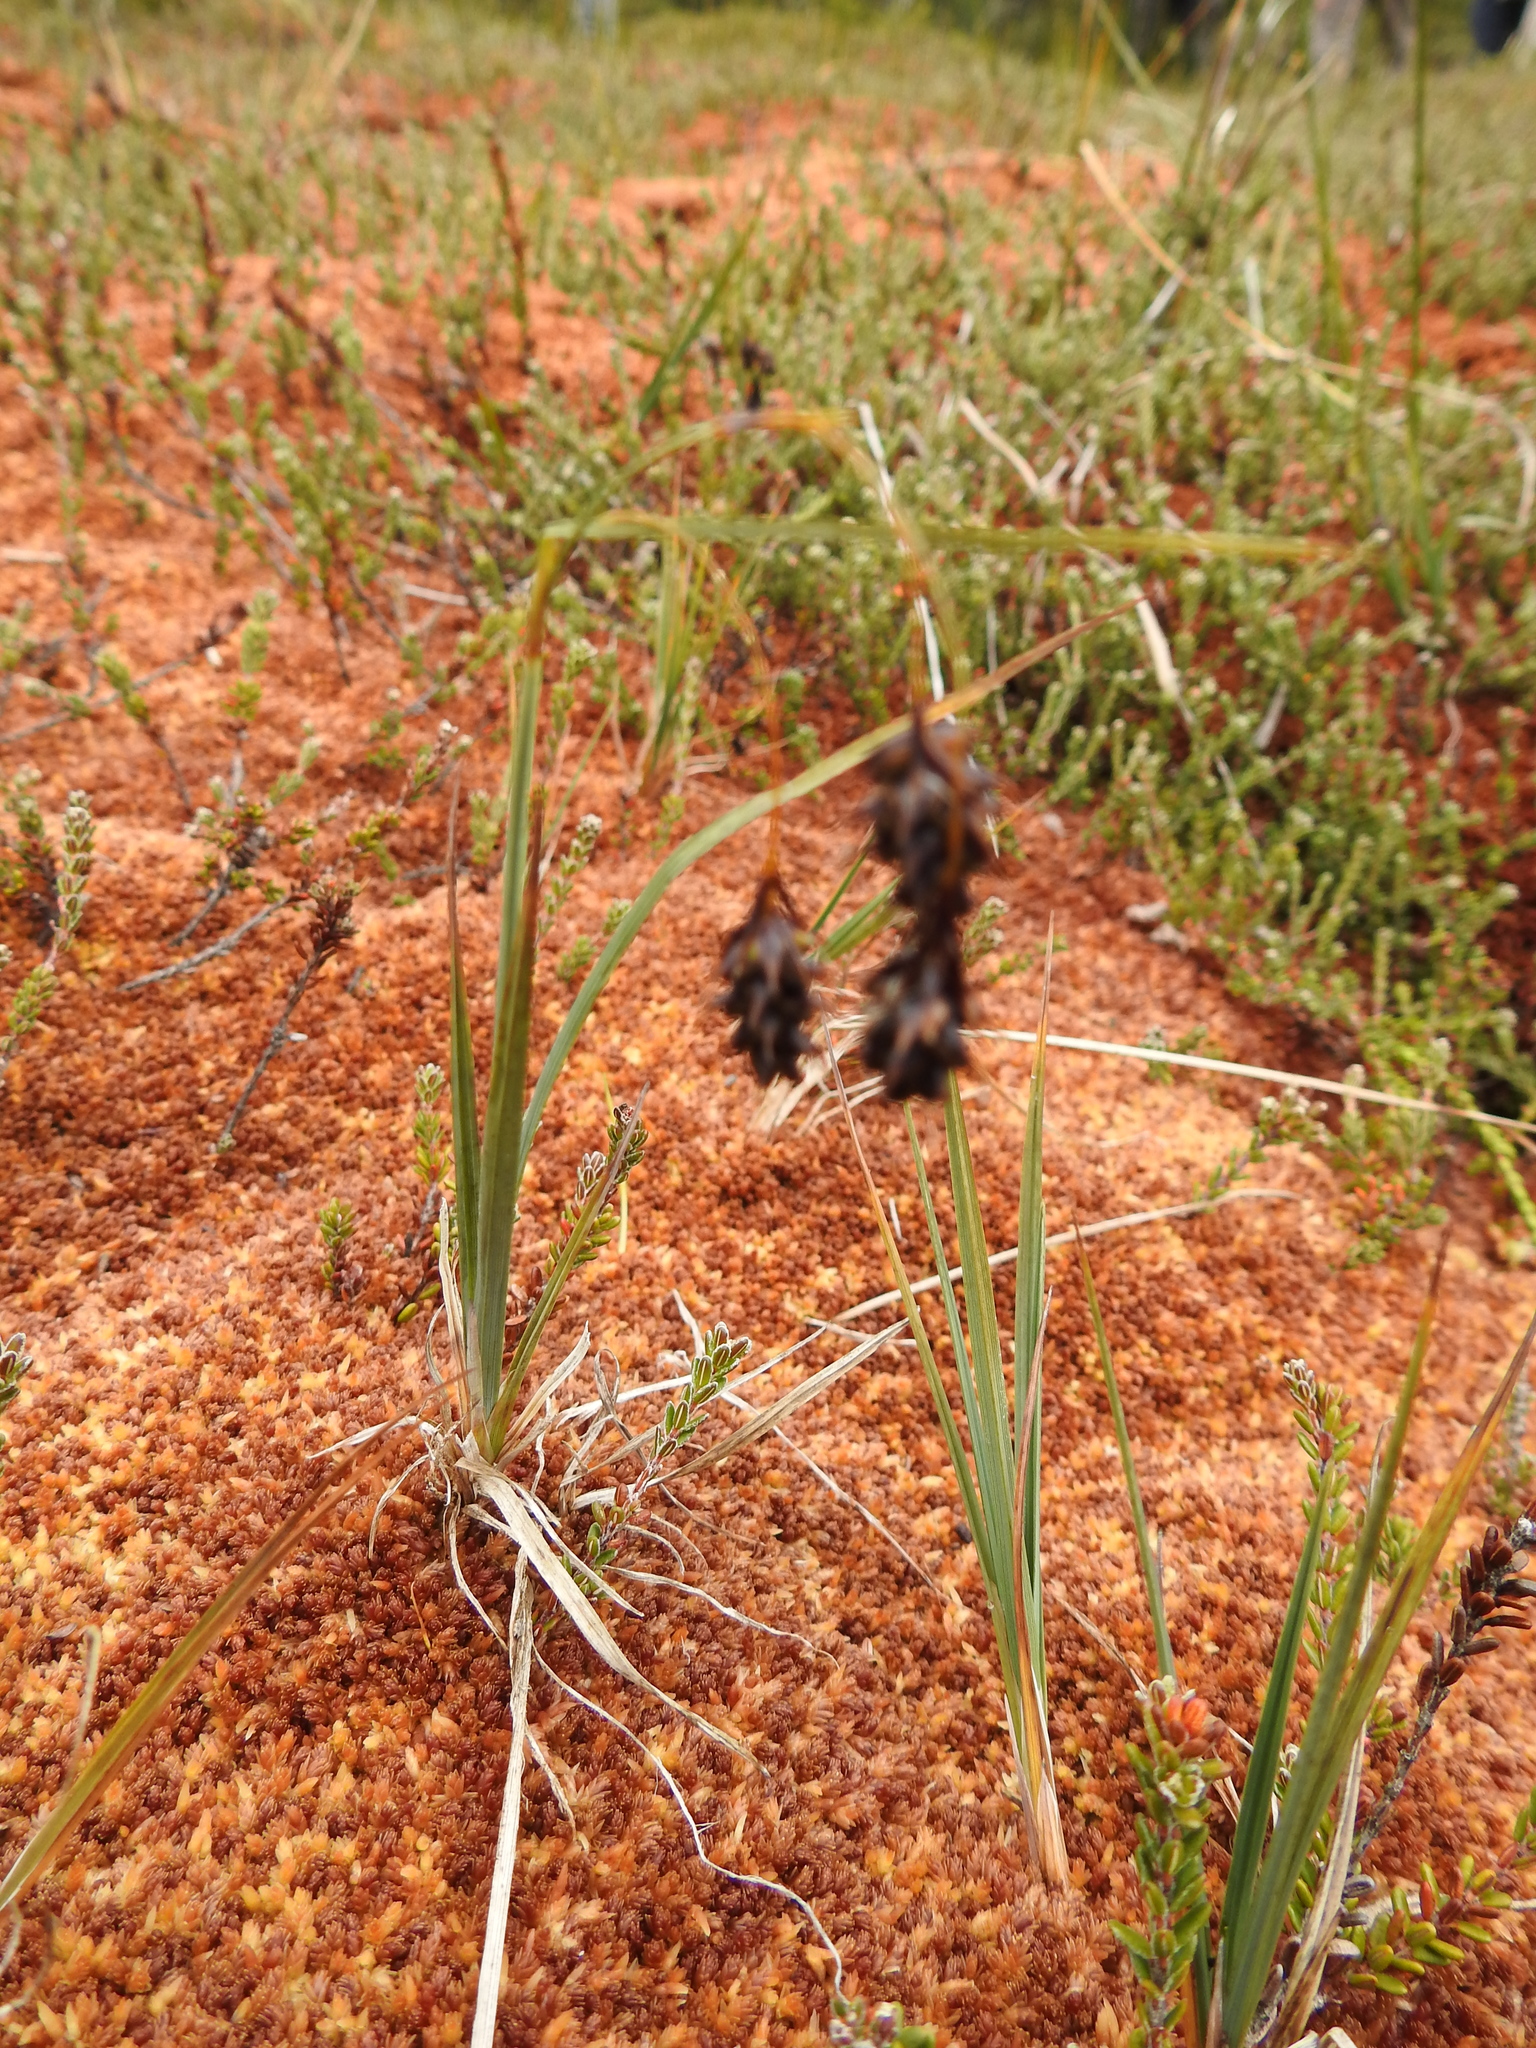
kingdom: Plantae
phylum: Tracheophyta
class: Liliopsida
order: Poales
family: Cyperaceae
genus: Carex
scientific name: Carex magellanica
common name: Bog sedge
